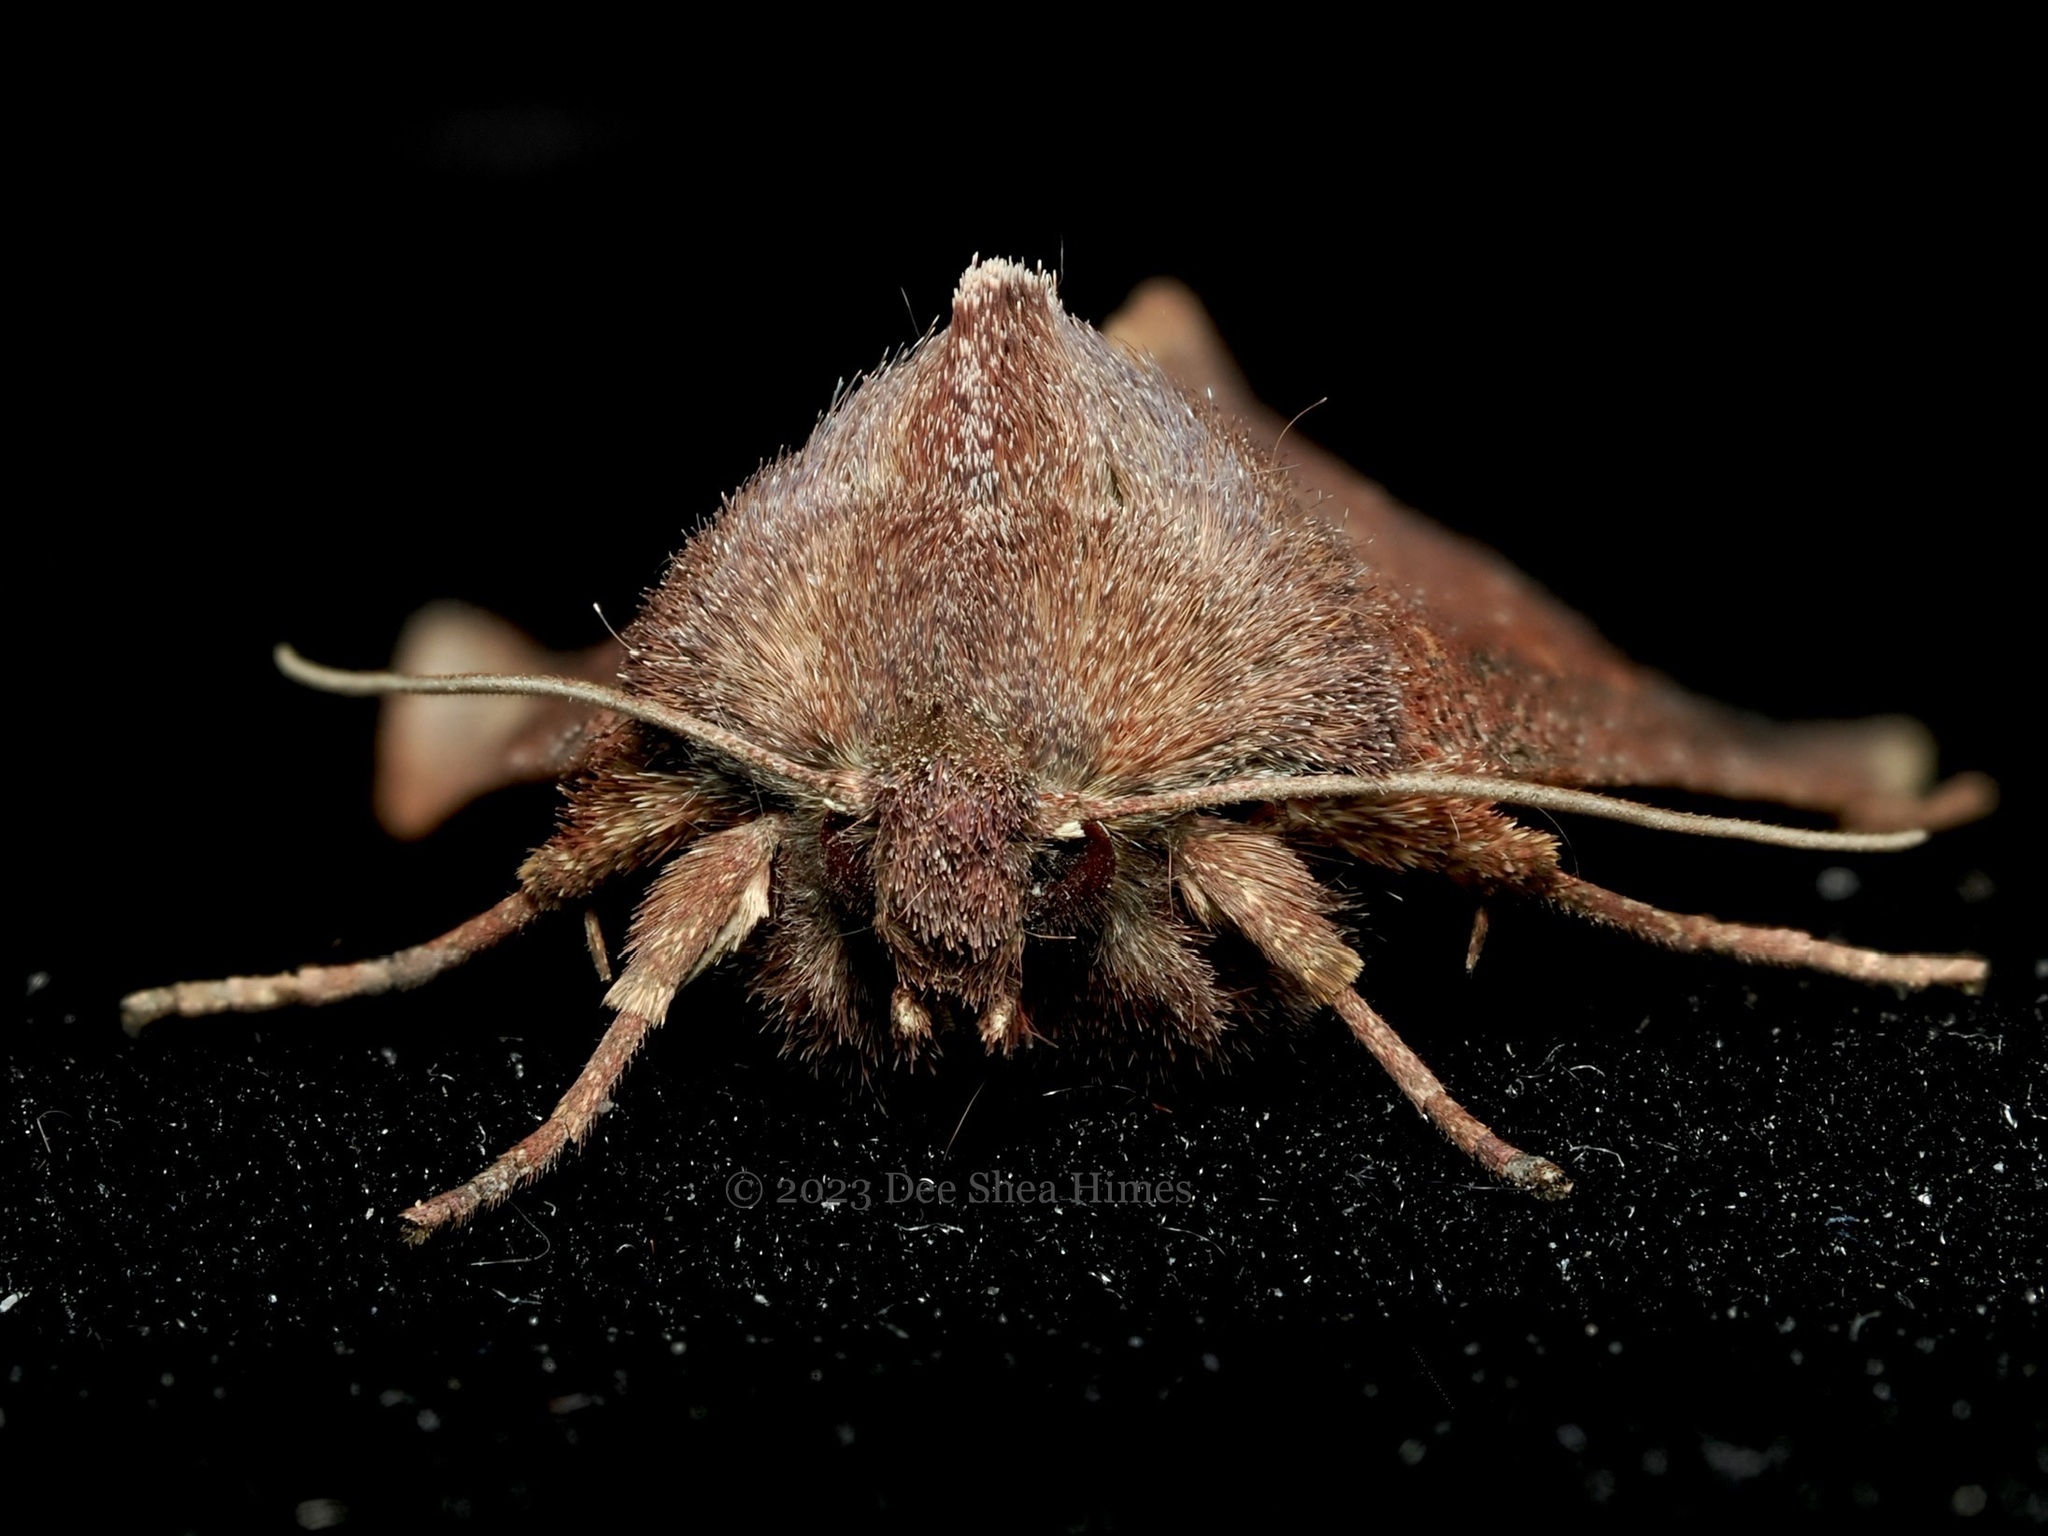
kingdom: Animalia
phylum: Arthropoda
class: Insecta
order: Lepidoptera
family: Noctuidae
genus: Orthosia
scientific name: Orthosia transparens
